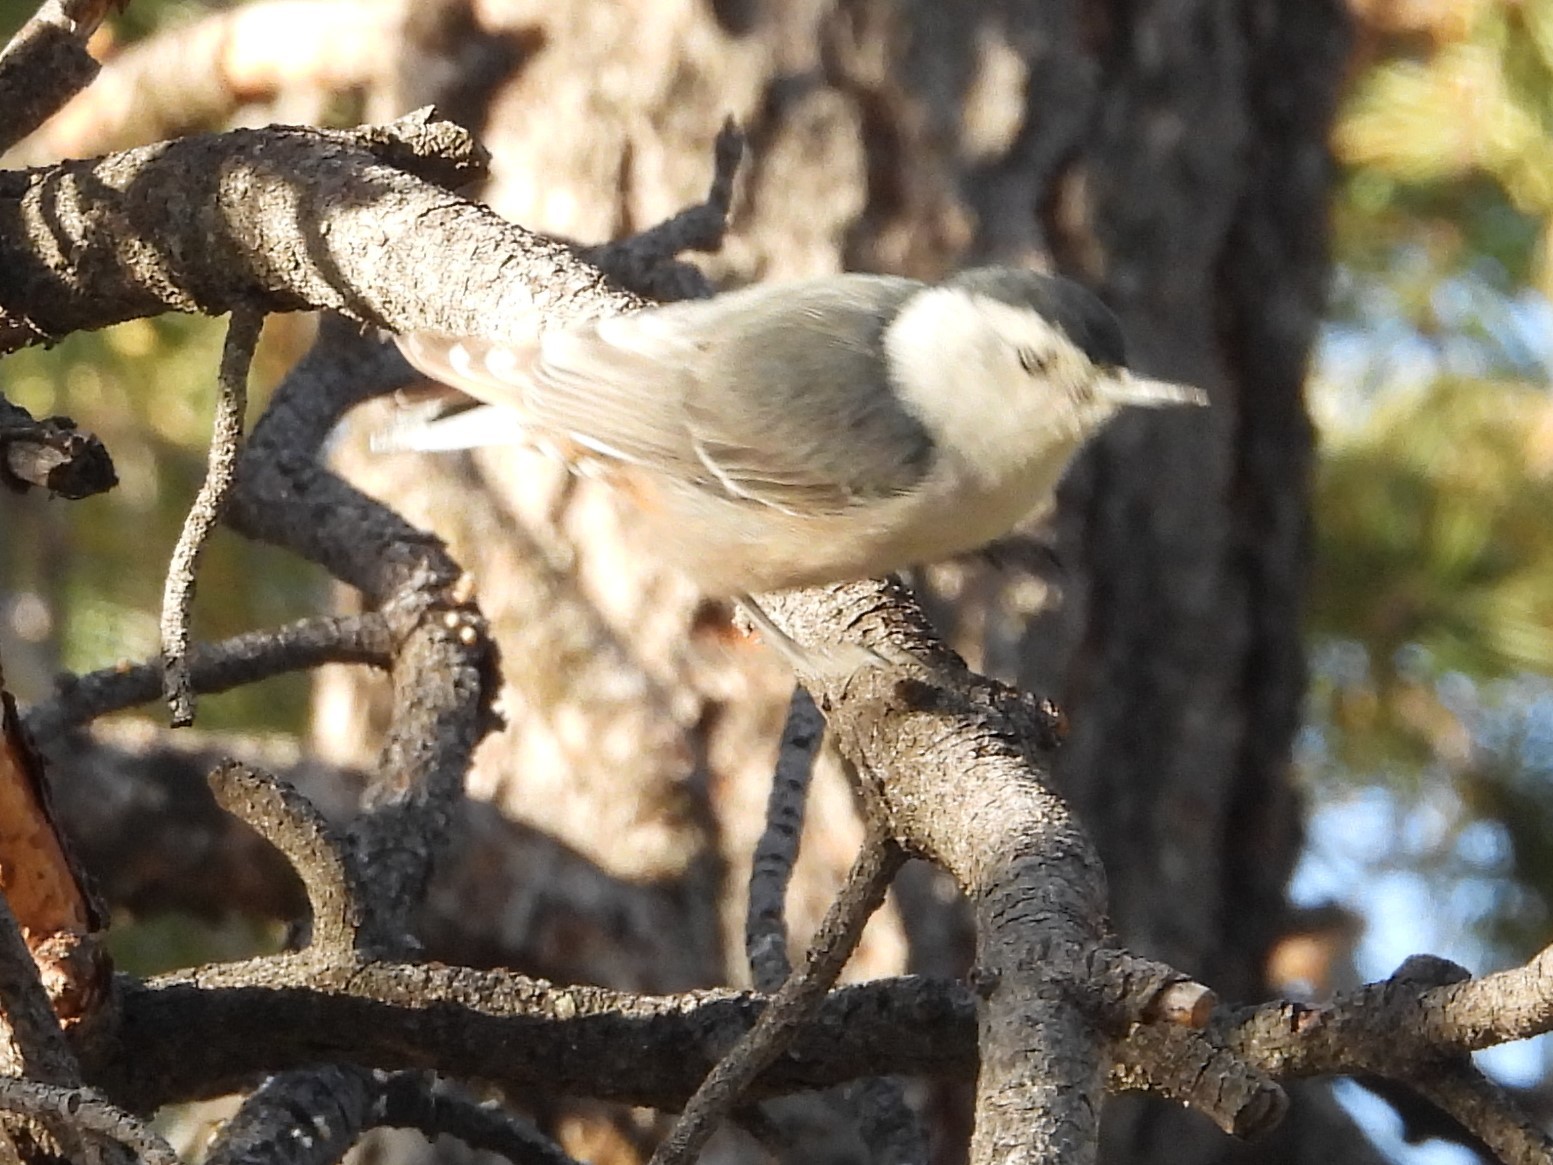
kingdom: Animalia
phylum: Chordata
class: Aves
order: Passeriformes
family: Sittidae
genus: Sitta
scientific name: Sitta carolinensis
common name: White-breasted nuthatch
